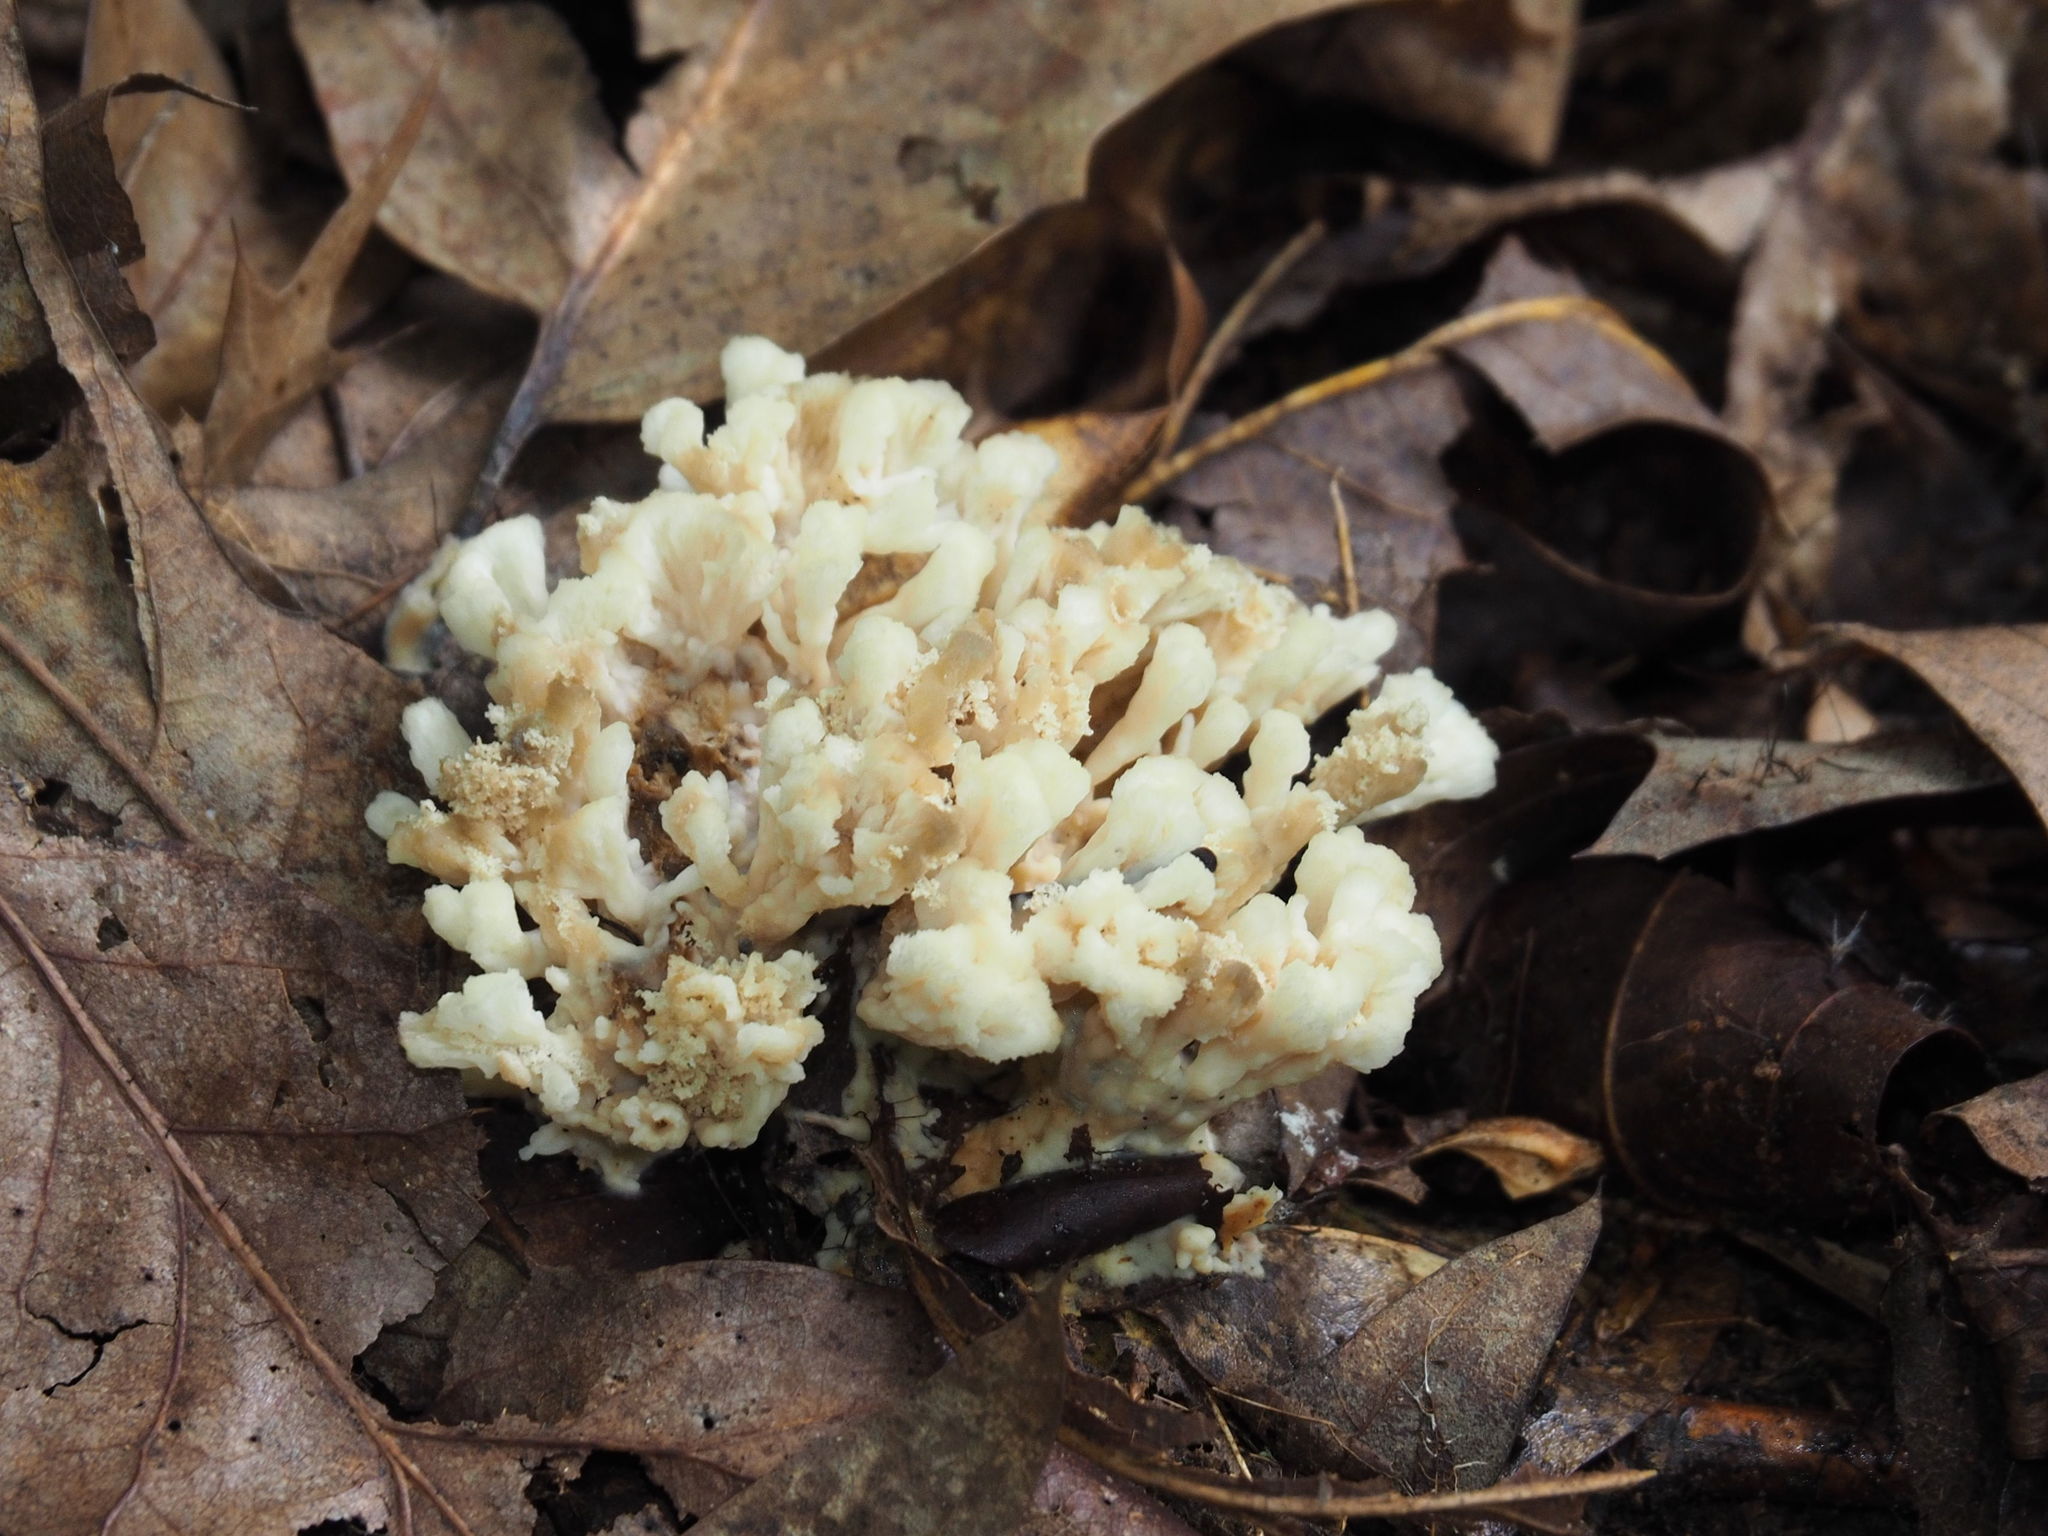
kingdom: Fungi
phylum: Basidiomycota
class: Agaricomycetes
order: Sebacinales
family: Sebacinaceae
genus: Sebacina
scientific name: Sebacina schweinitzii
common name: Jellied false coral fungus
